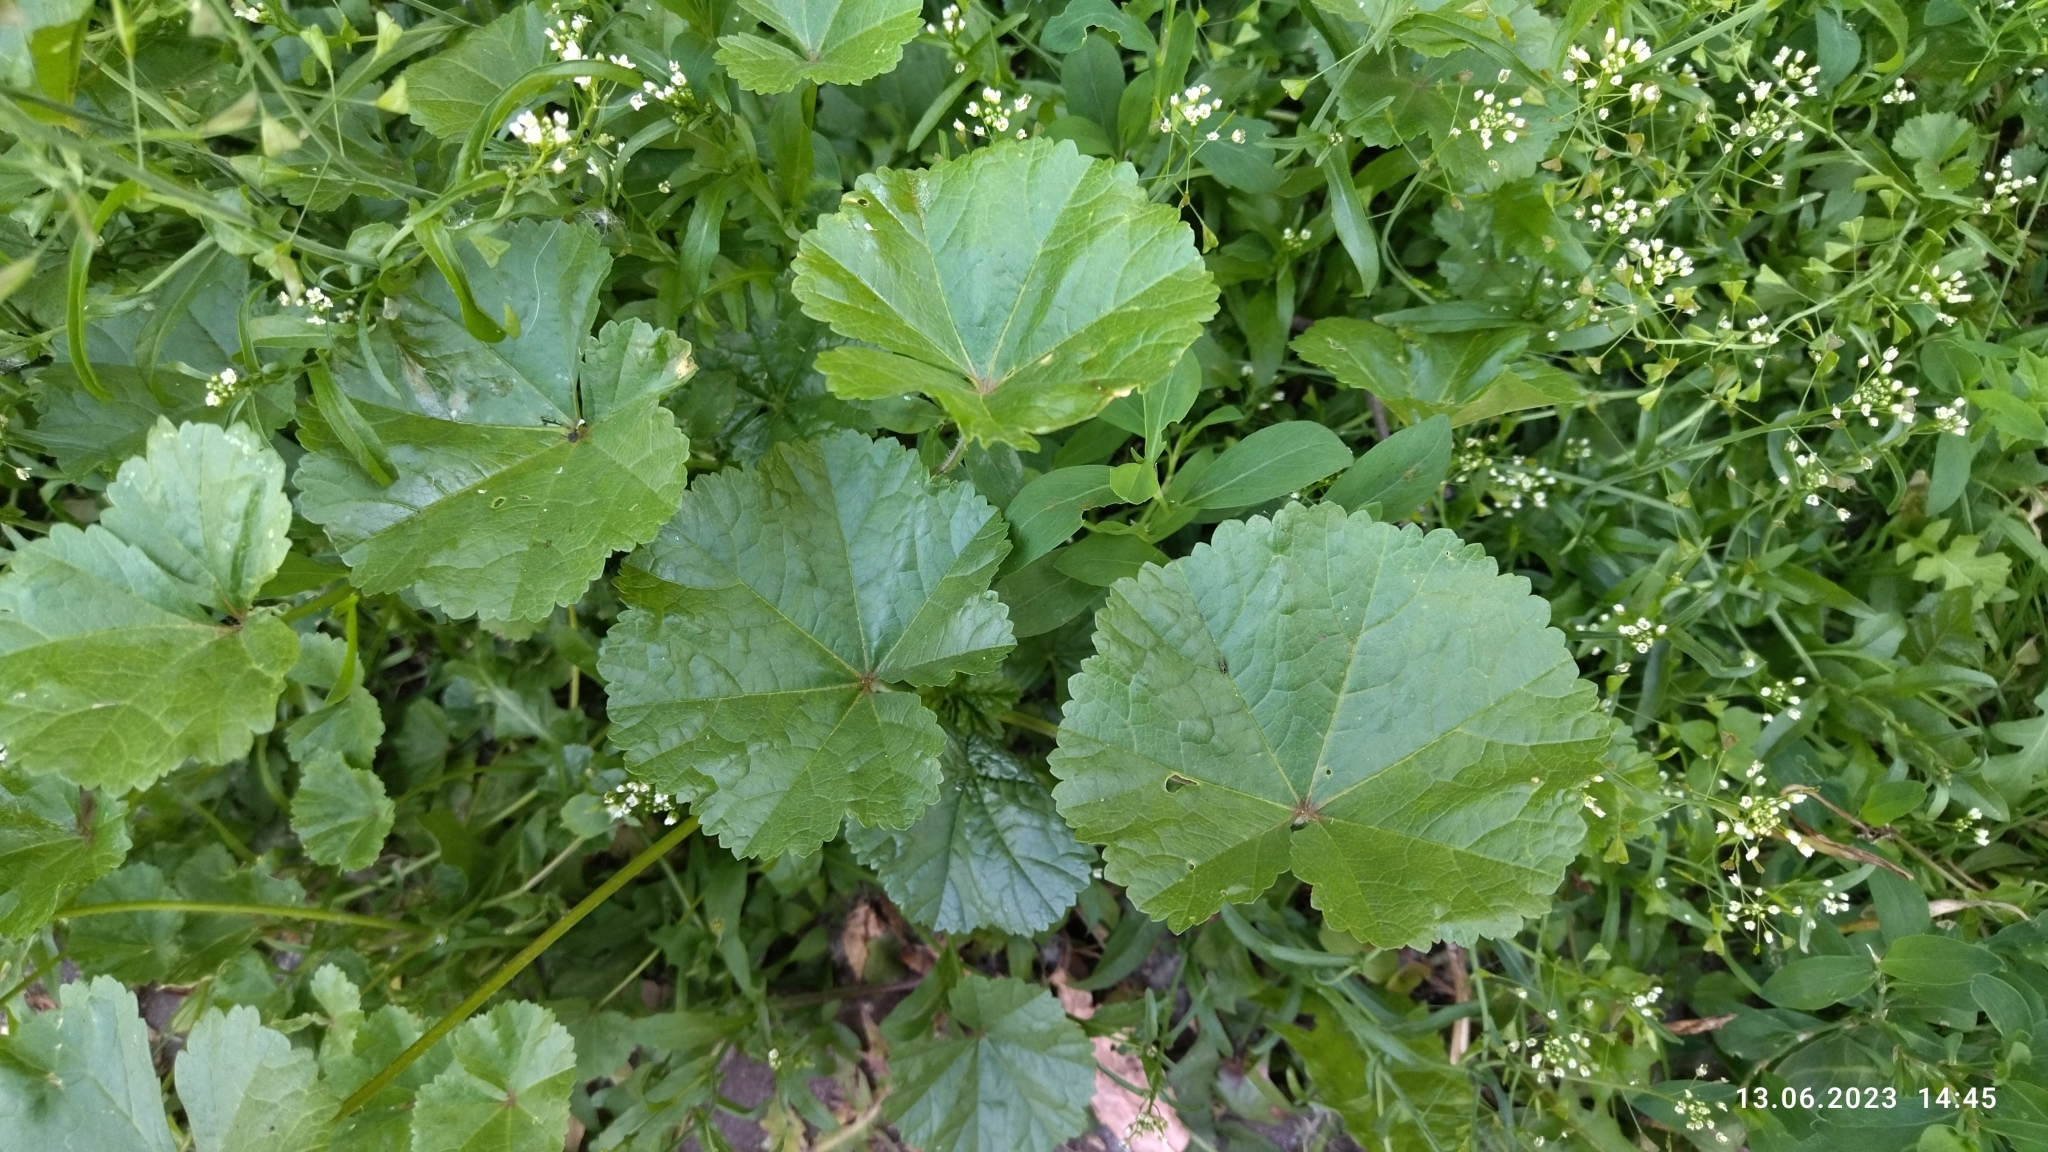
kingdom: Plantae
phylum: Tracheophyta
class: Magnoliopsida
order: Malvales
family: Malvaceae
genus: Malva
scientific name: Malva pusilla
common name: Small mallow
